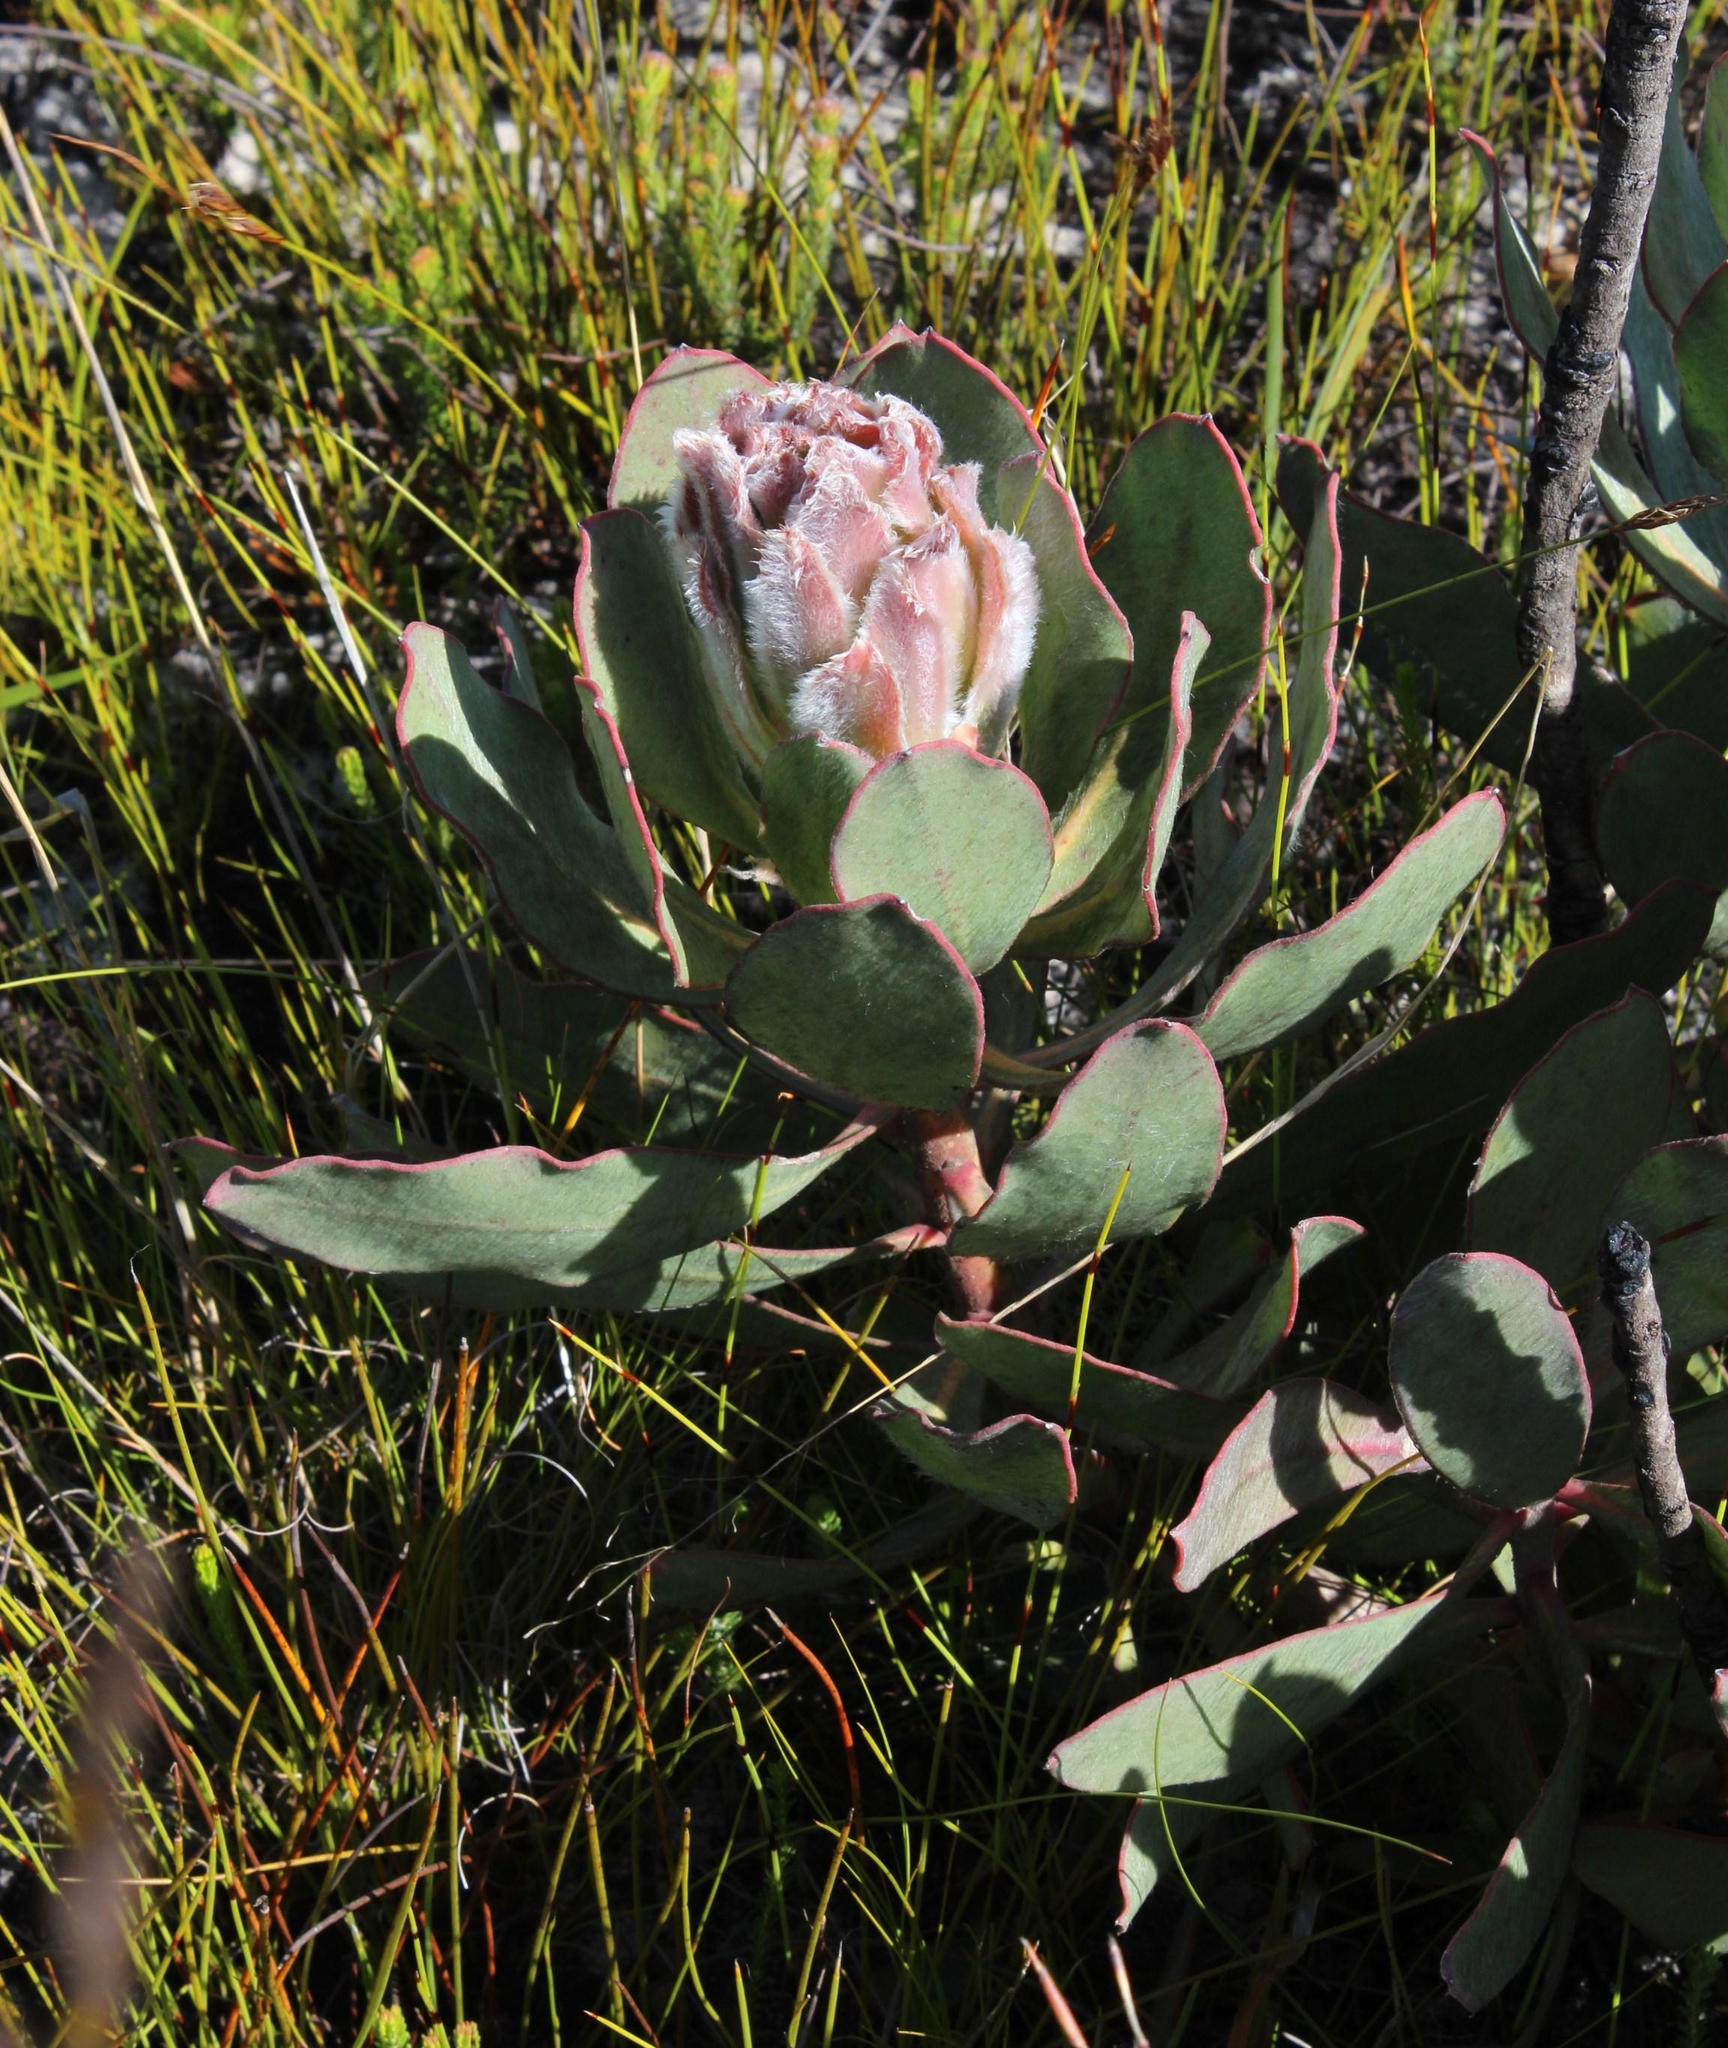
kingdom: Plantae
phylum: Tracheophyta
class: Magnoliopsida
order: Proteales
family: Proteaceae
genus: Protea
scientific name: Protea speciosa
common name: Brown-beard sugarbush
